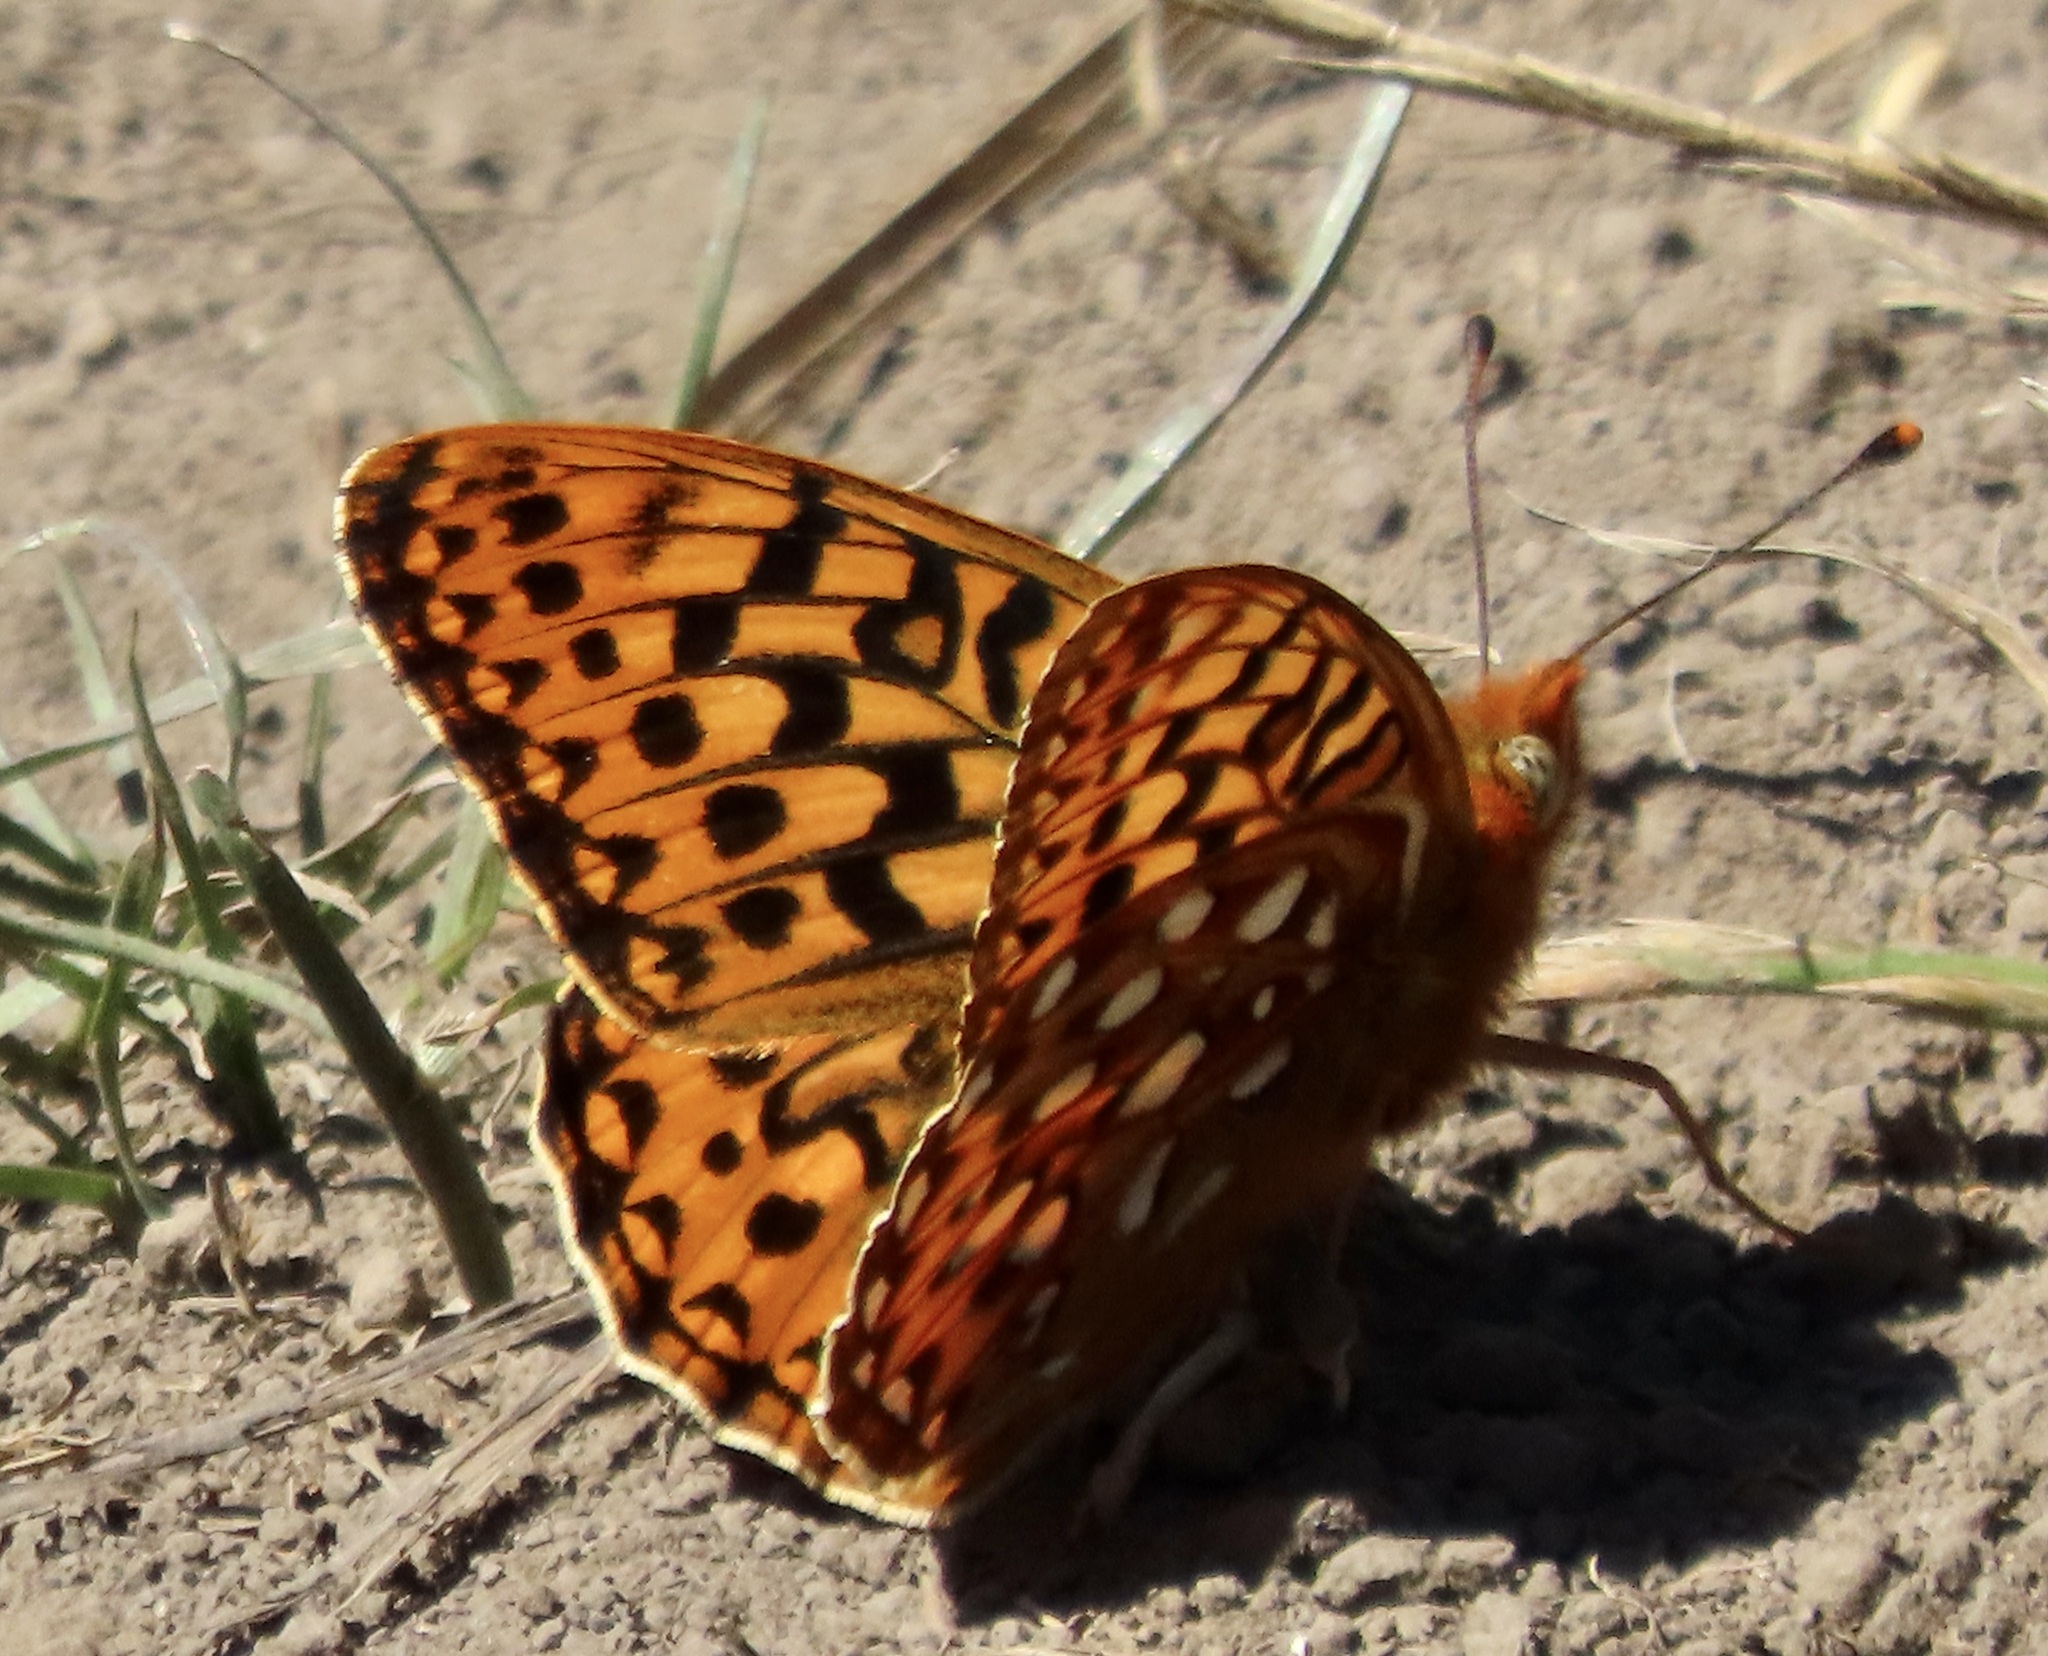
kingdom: Animalia
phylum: Arthropoda
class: Insecta
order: Lepidoptera
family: Nymphalidae
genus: Speyeria
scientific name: Speyeria zerene
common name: Zerene fritillary
